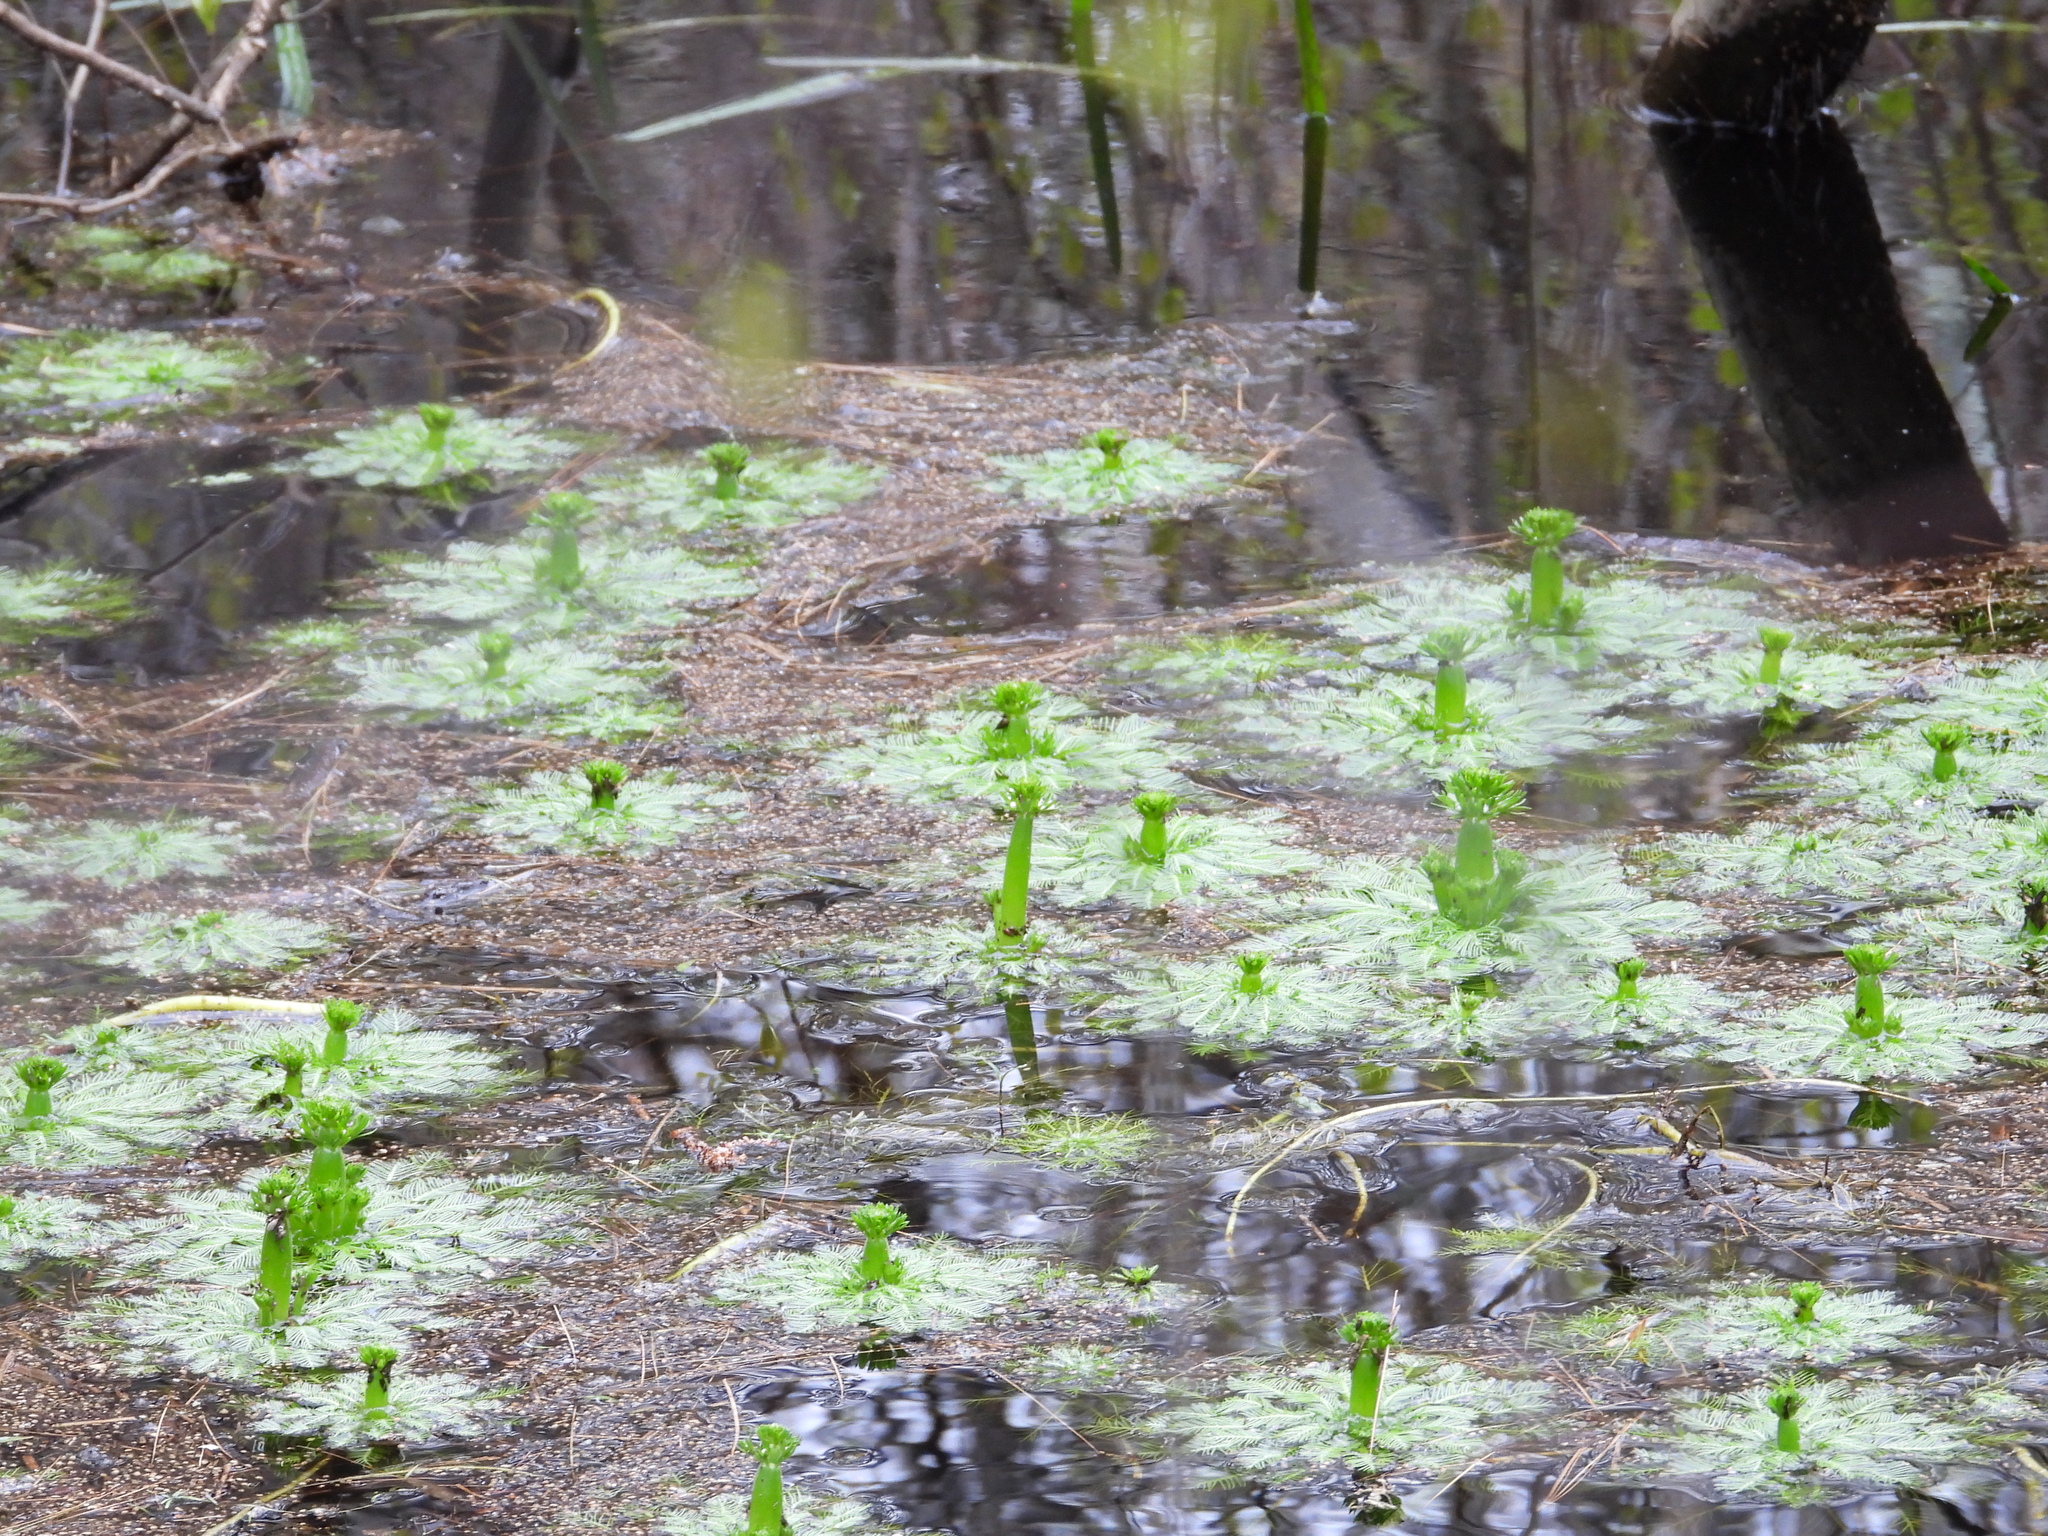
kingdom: Plantae
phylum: Tracheophyta
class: Magnoliopsida
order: Ericales
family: Primulaceae
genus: Hottonia
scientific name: Hottonia inflata
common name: American featherfoil
